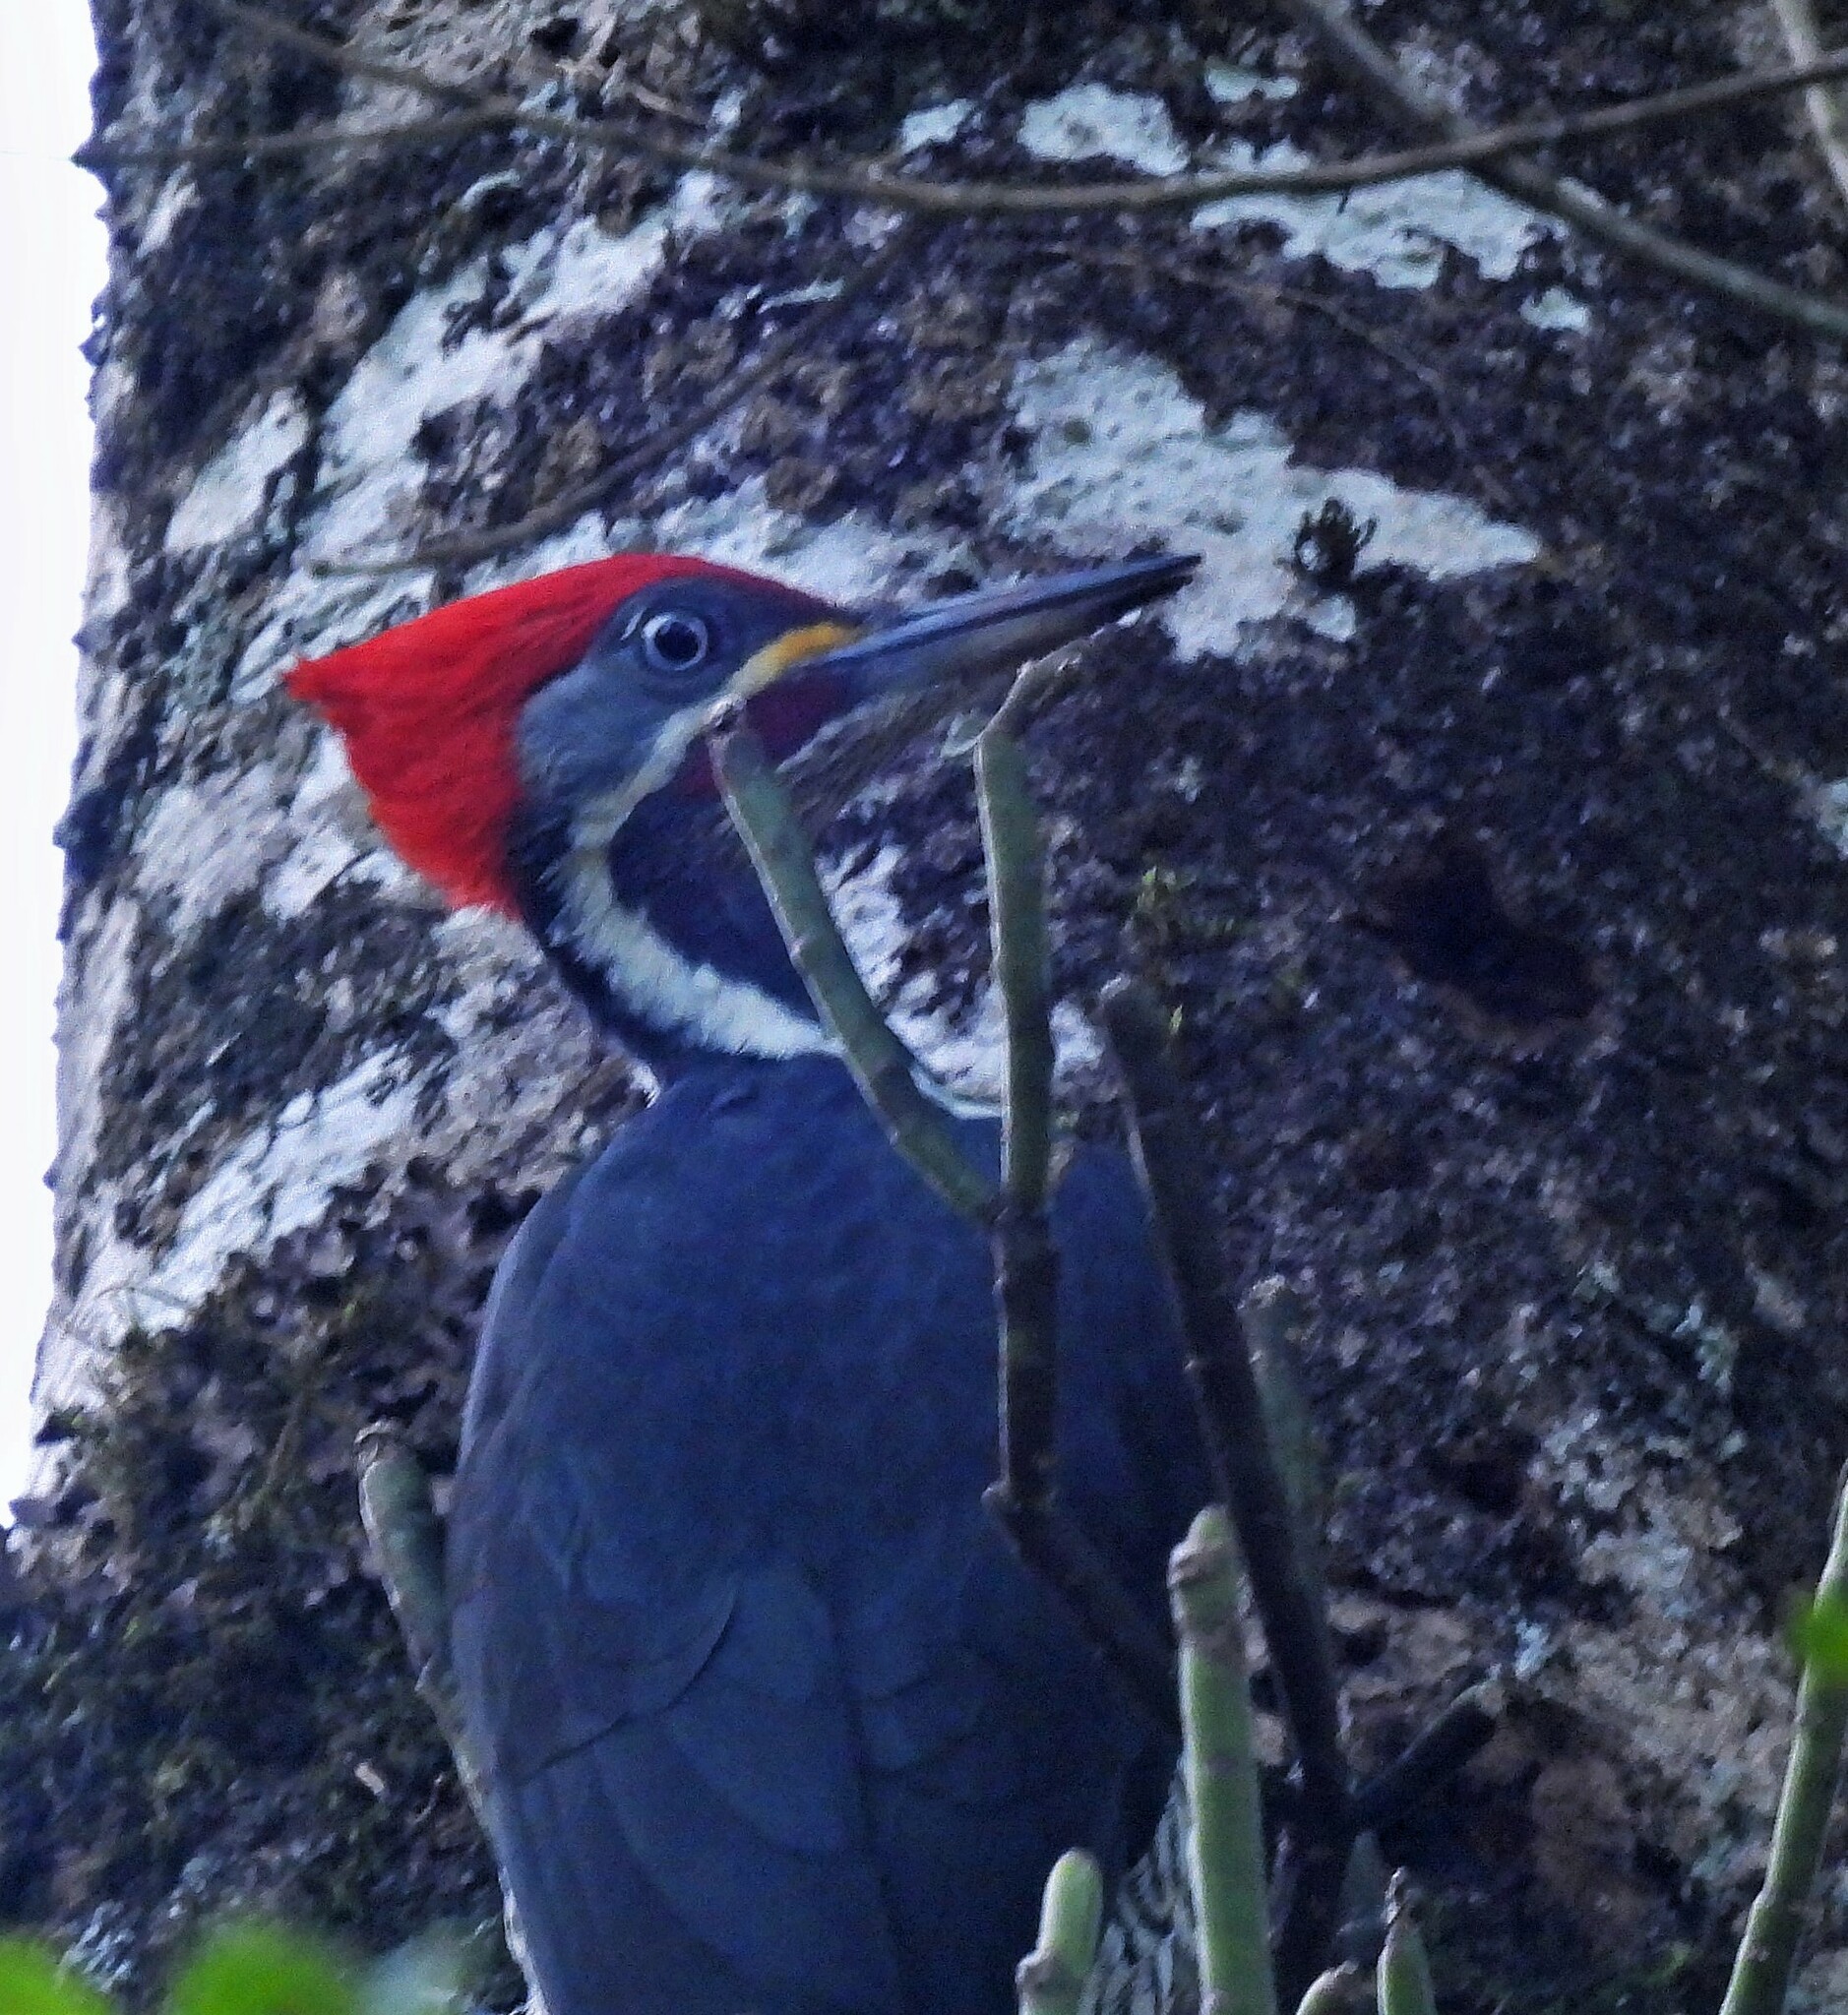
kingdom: Animalia
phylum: Chordata
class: Aves
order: Piciformes
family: Picidae
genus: Dryocopus
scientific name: Dryocopus lineatus
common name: Lineated woodpecker
